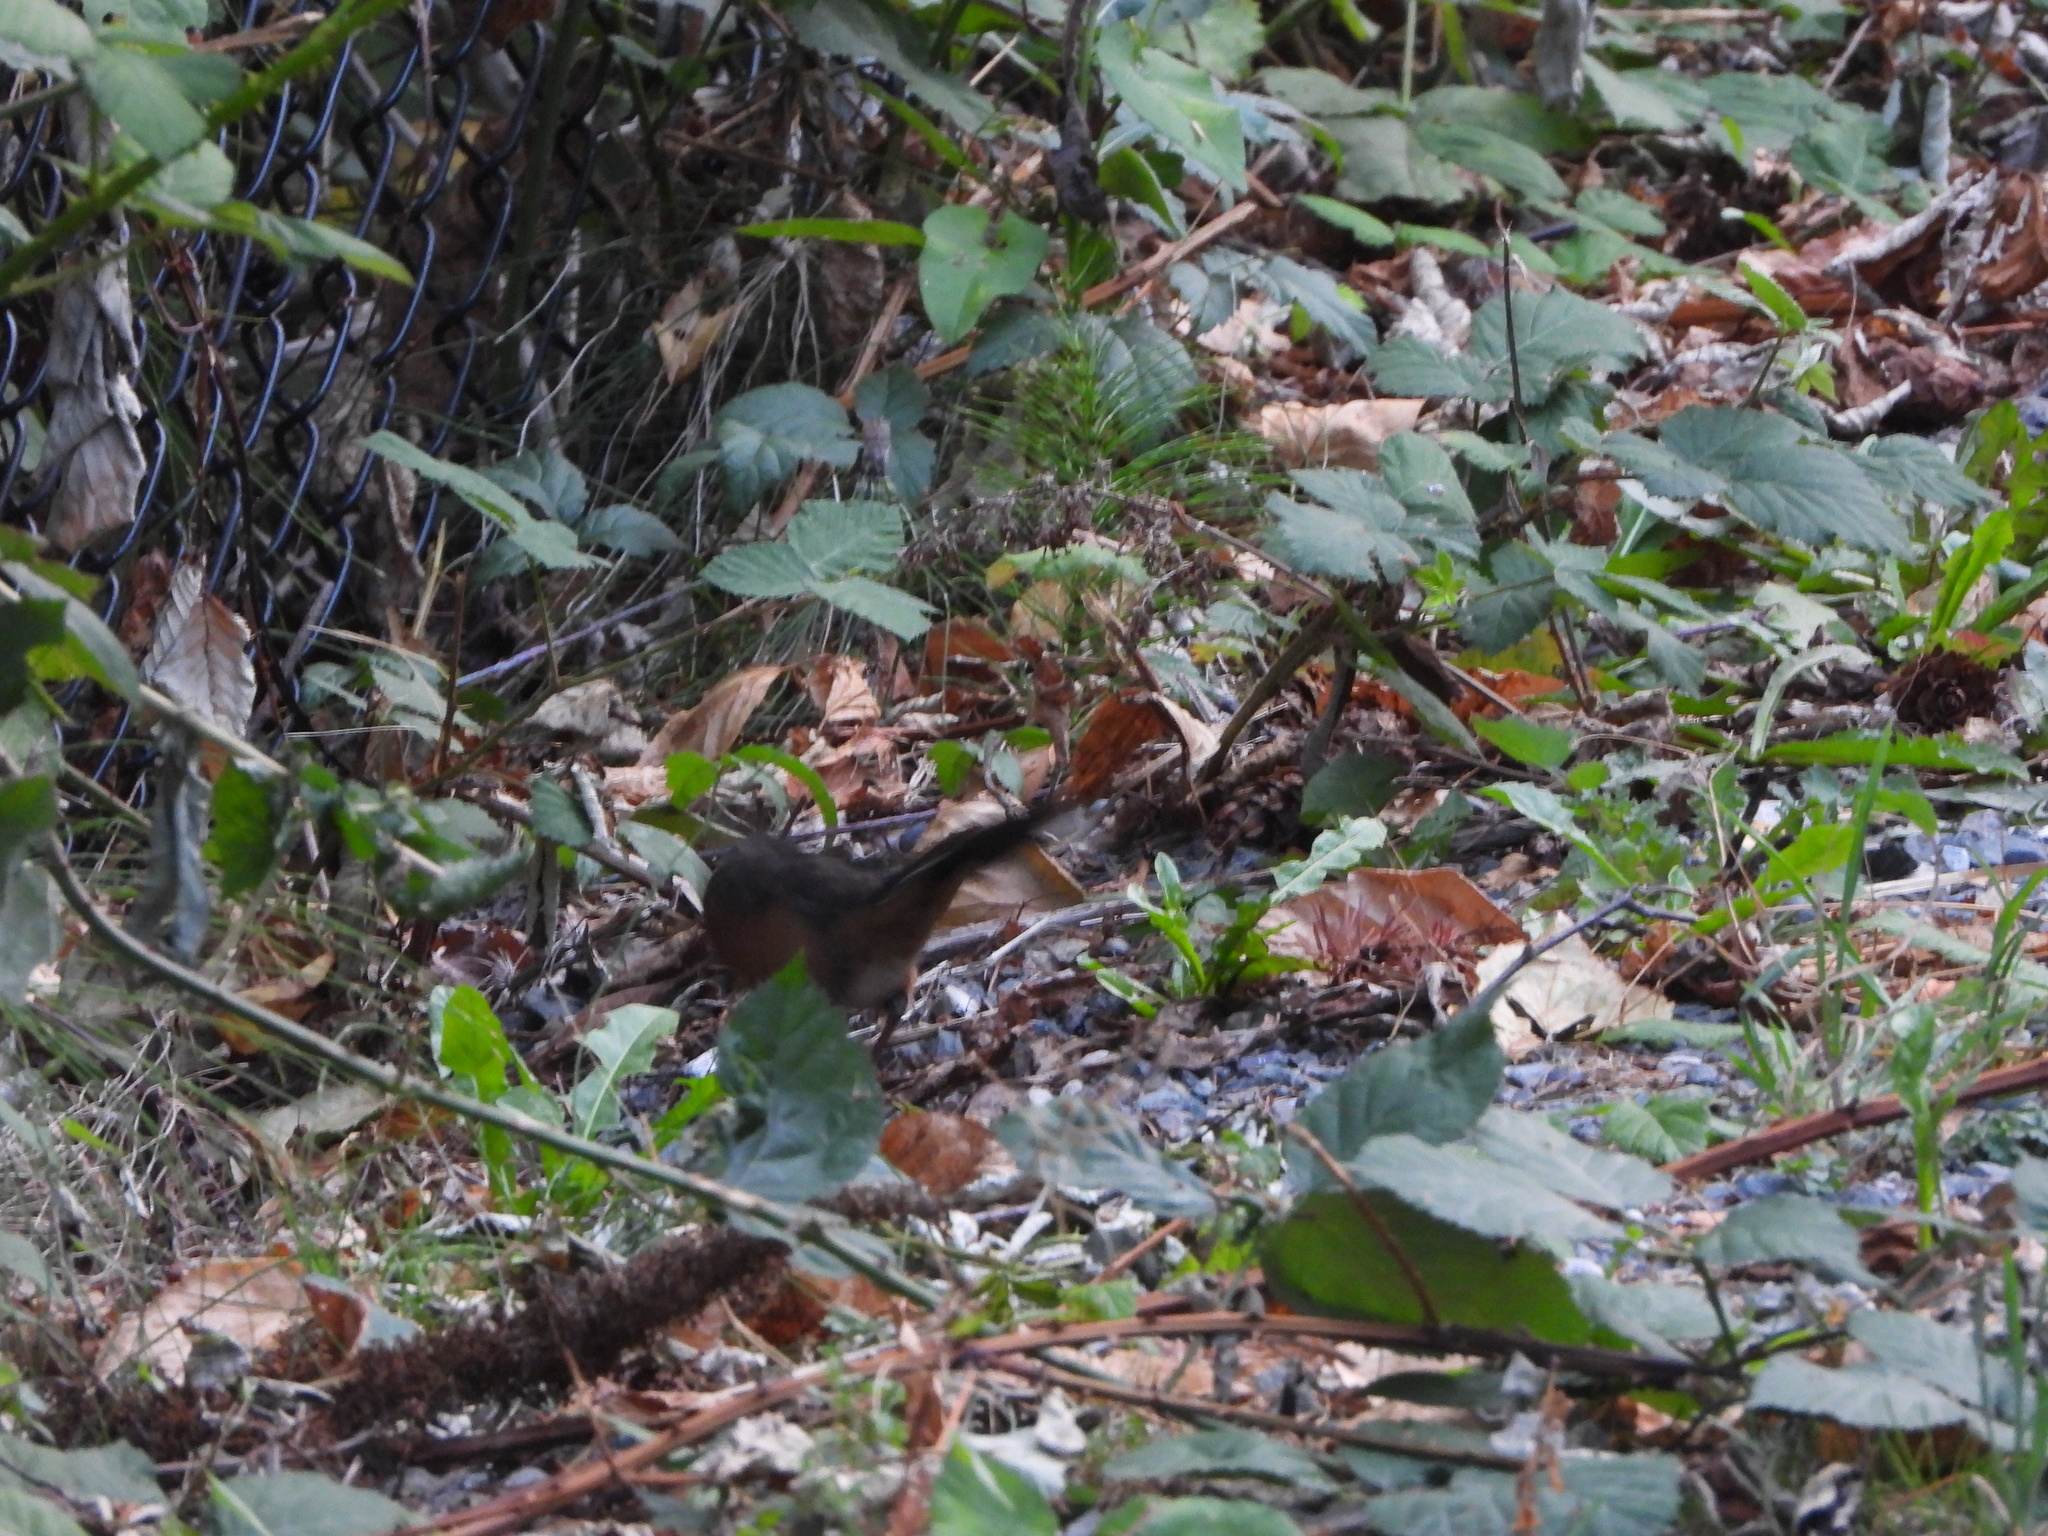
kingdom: Animalia
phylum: Chordata
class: Aves
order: Passeriformes
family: Passerellidae
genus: Pipilo
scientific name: Pipilo maculatus
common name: Spotted towhee
